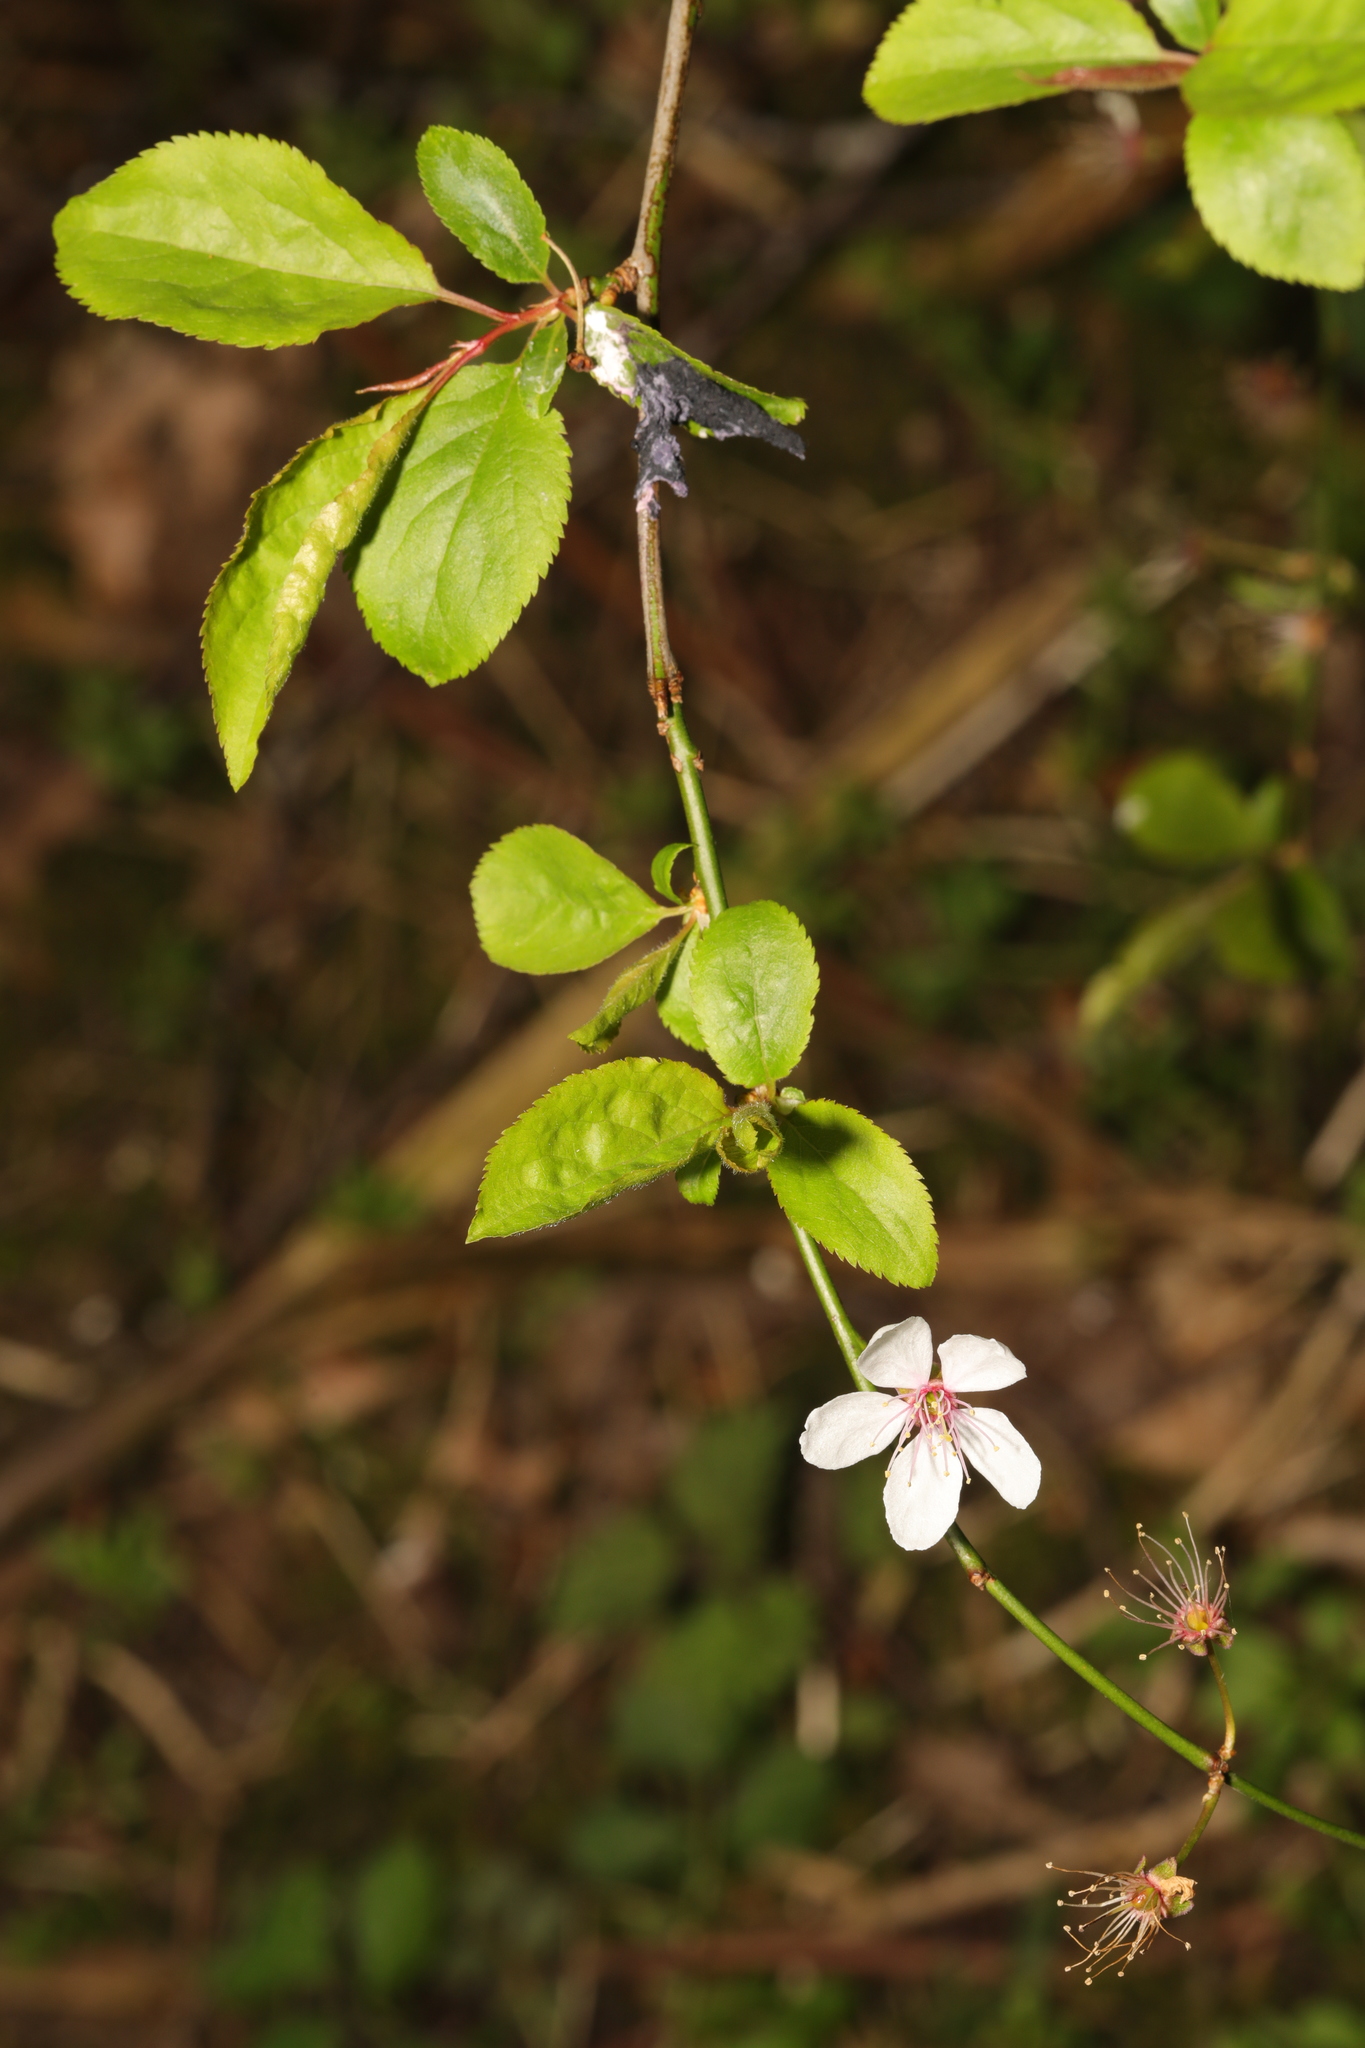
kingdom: Plantae
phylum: Tracheophyta
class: Magnoliopsida
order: Rosales
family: Rosaceae
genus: Prunus
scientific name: Prunus cerasifera
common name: Cherry plum
